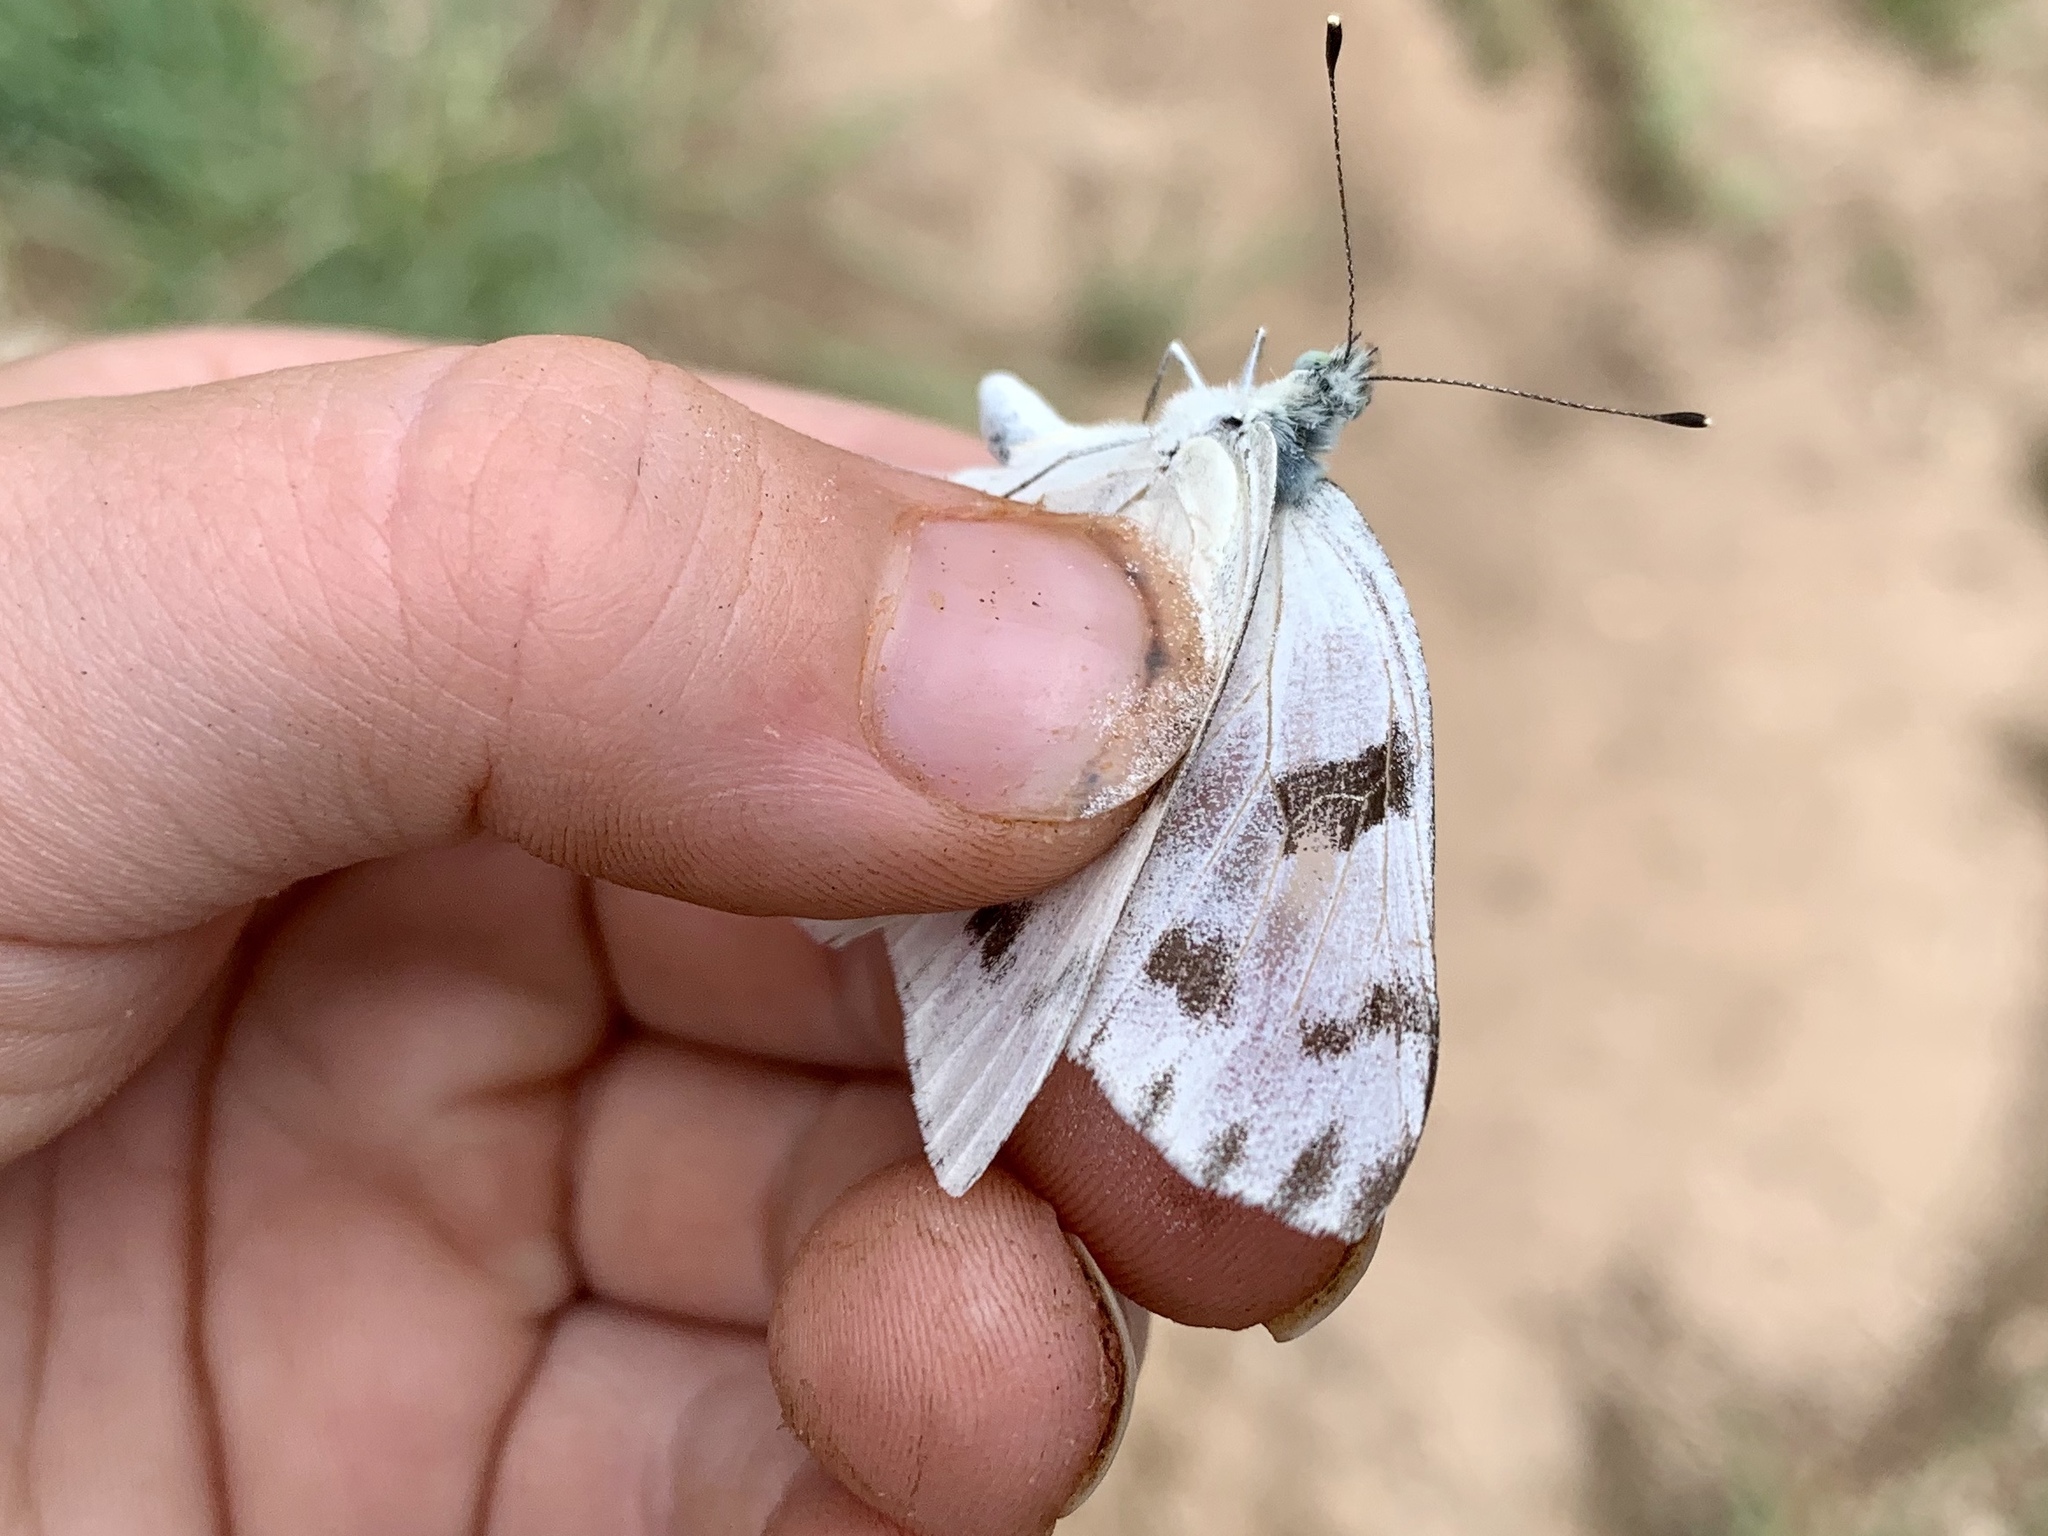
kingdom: Animalia
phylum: Arthropoda
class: Insecta
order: Lepidoptera
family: Pieridae
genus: Pontia
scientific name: Pontia protodice
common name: Checkered white
